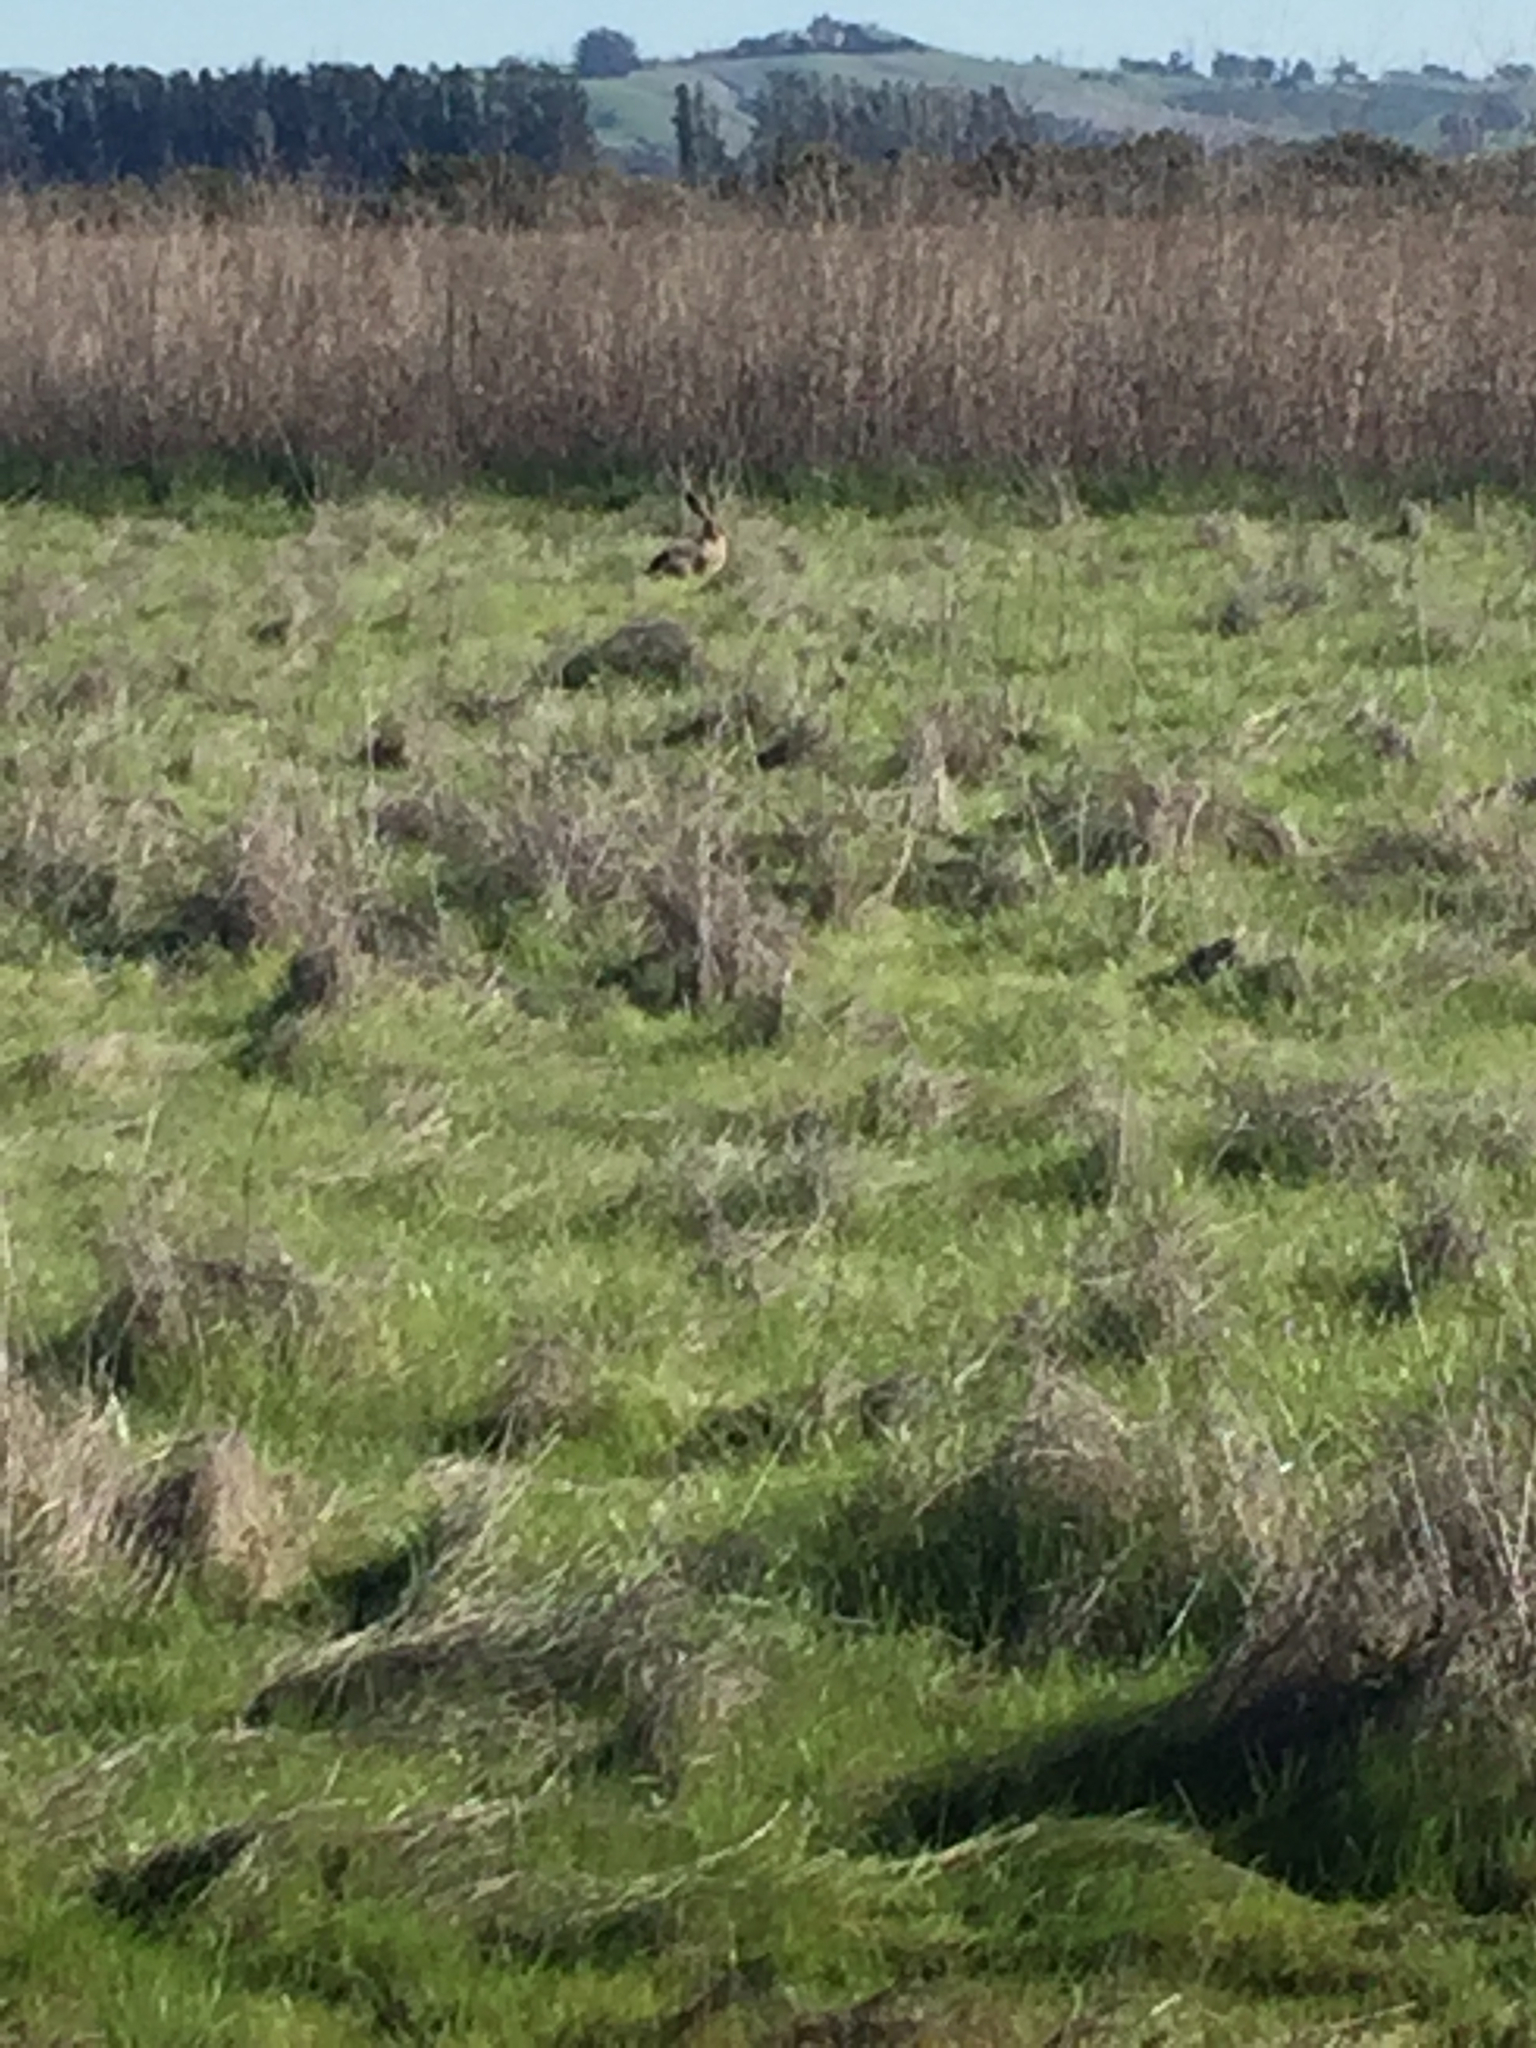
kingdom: Animalia
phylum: Chordata
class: Mammalia
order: Lagomorpha
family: Leporidae
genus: Lepus
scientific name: Lepus californicus
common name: Black-tailed jackrabbit
